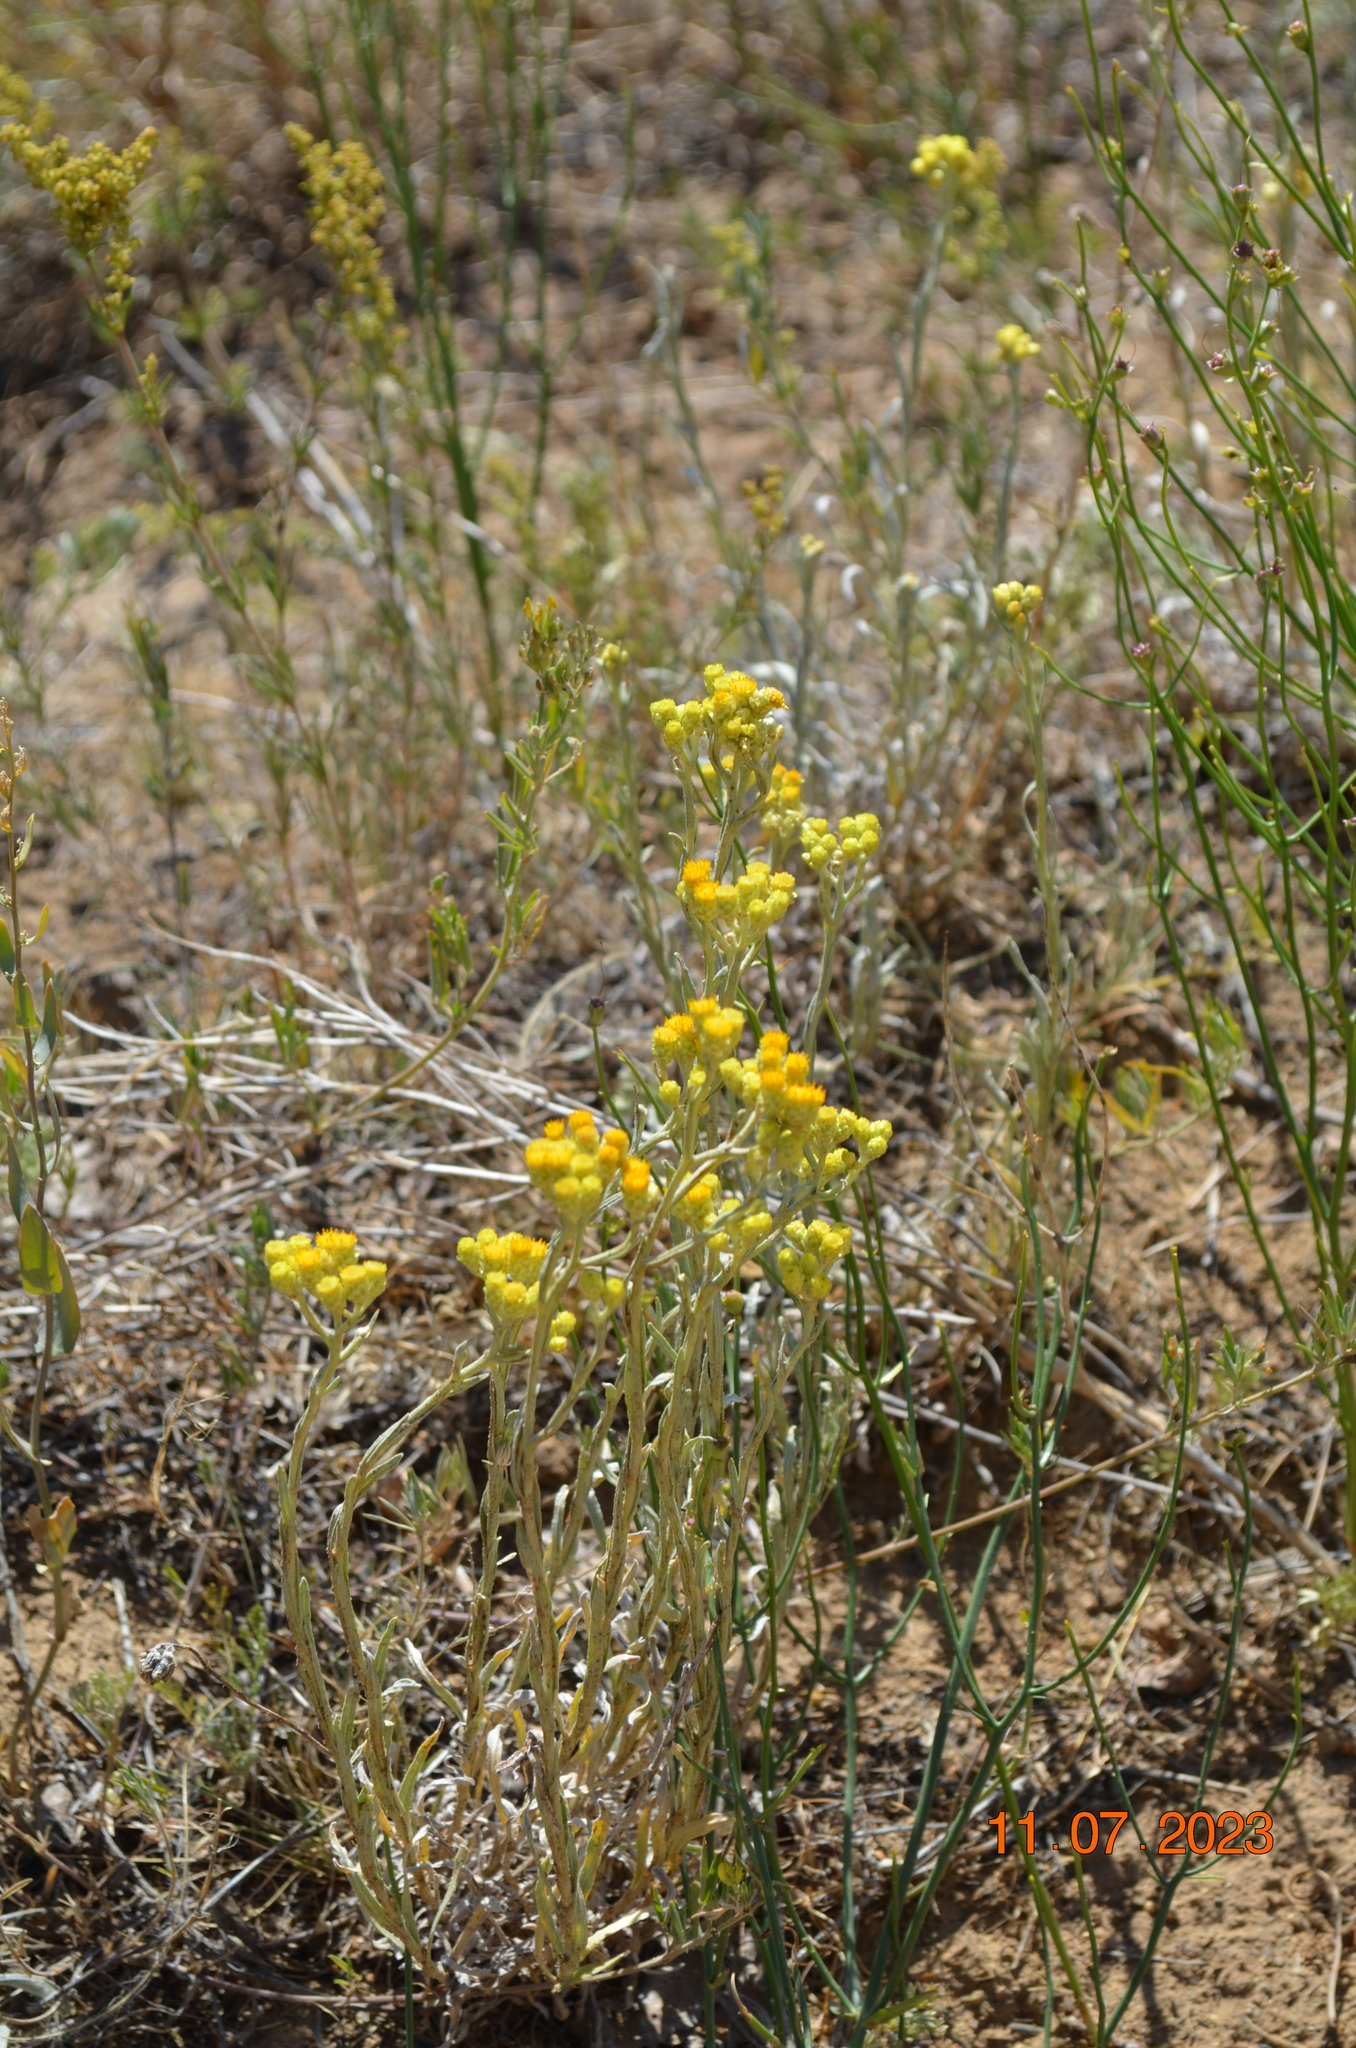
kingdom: Plantae
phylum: Tracheophyta
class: Magnoliopsida
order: Asterales
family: Asteraceae
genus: Helichrysum
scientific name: Helichrysum arenarium
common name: Strawflower
